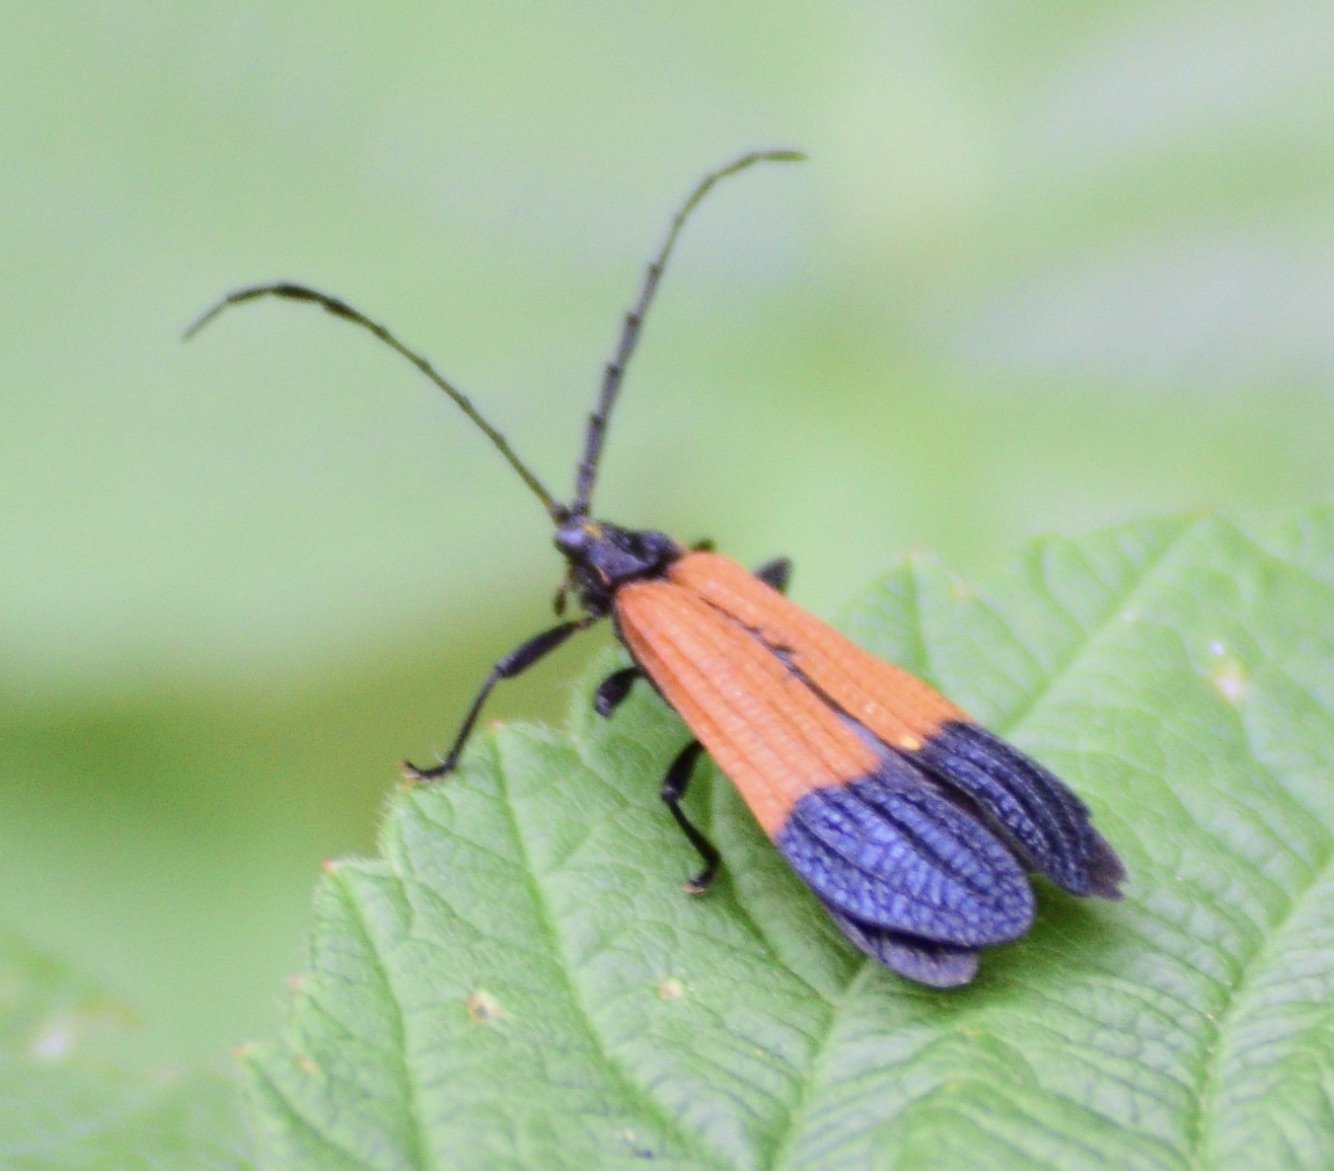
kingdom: Animalia
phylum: Arthropoda
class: Insecta
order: Coleoptera
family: Lycidae
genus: Calopteron
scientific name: Calopteron terminale
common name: End band net-winged beetle
